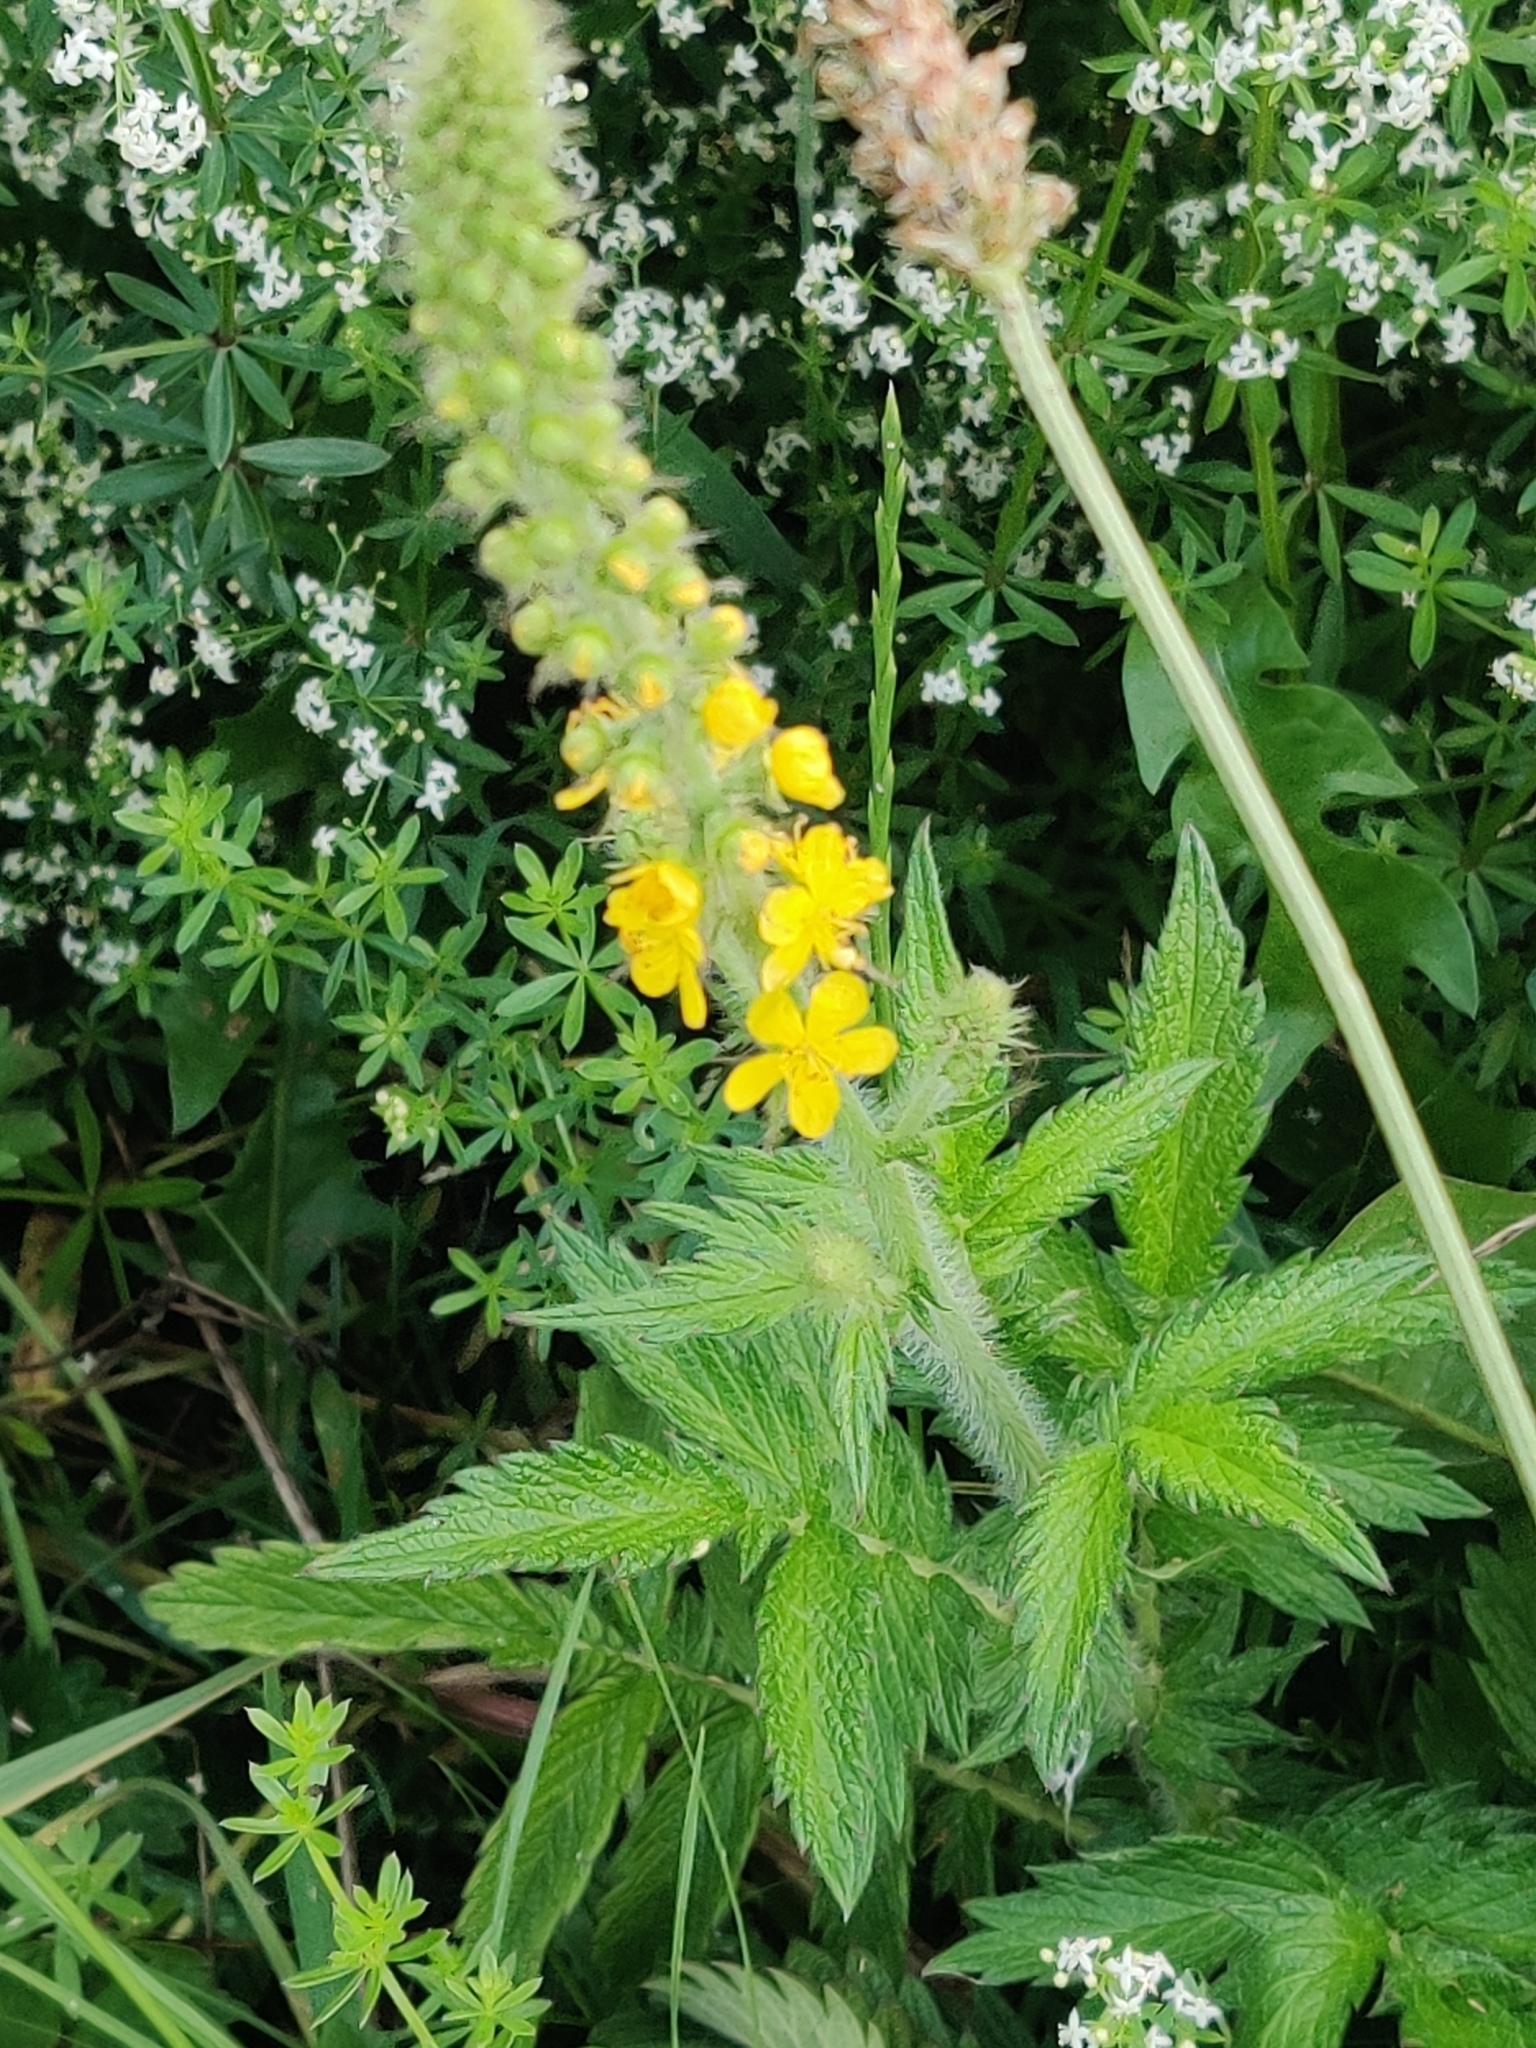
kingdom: Plantae
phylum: Tracheophyta
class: Magnoliopsida
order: Rosales
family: Rosaceae
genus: Agrimonia
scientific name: Agrimonia eupatoria
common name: Agrimony
